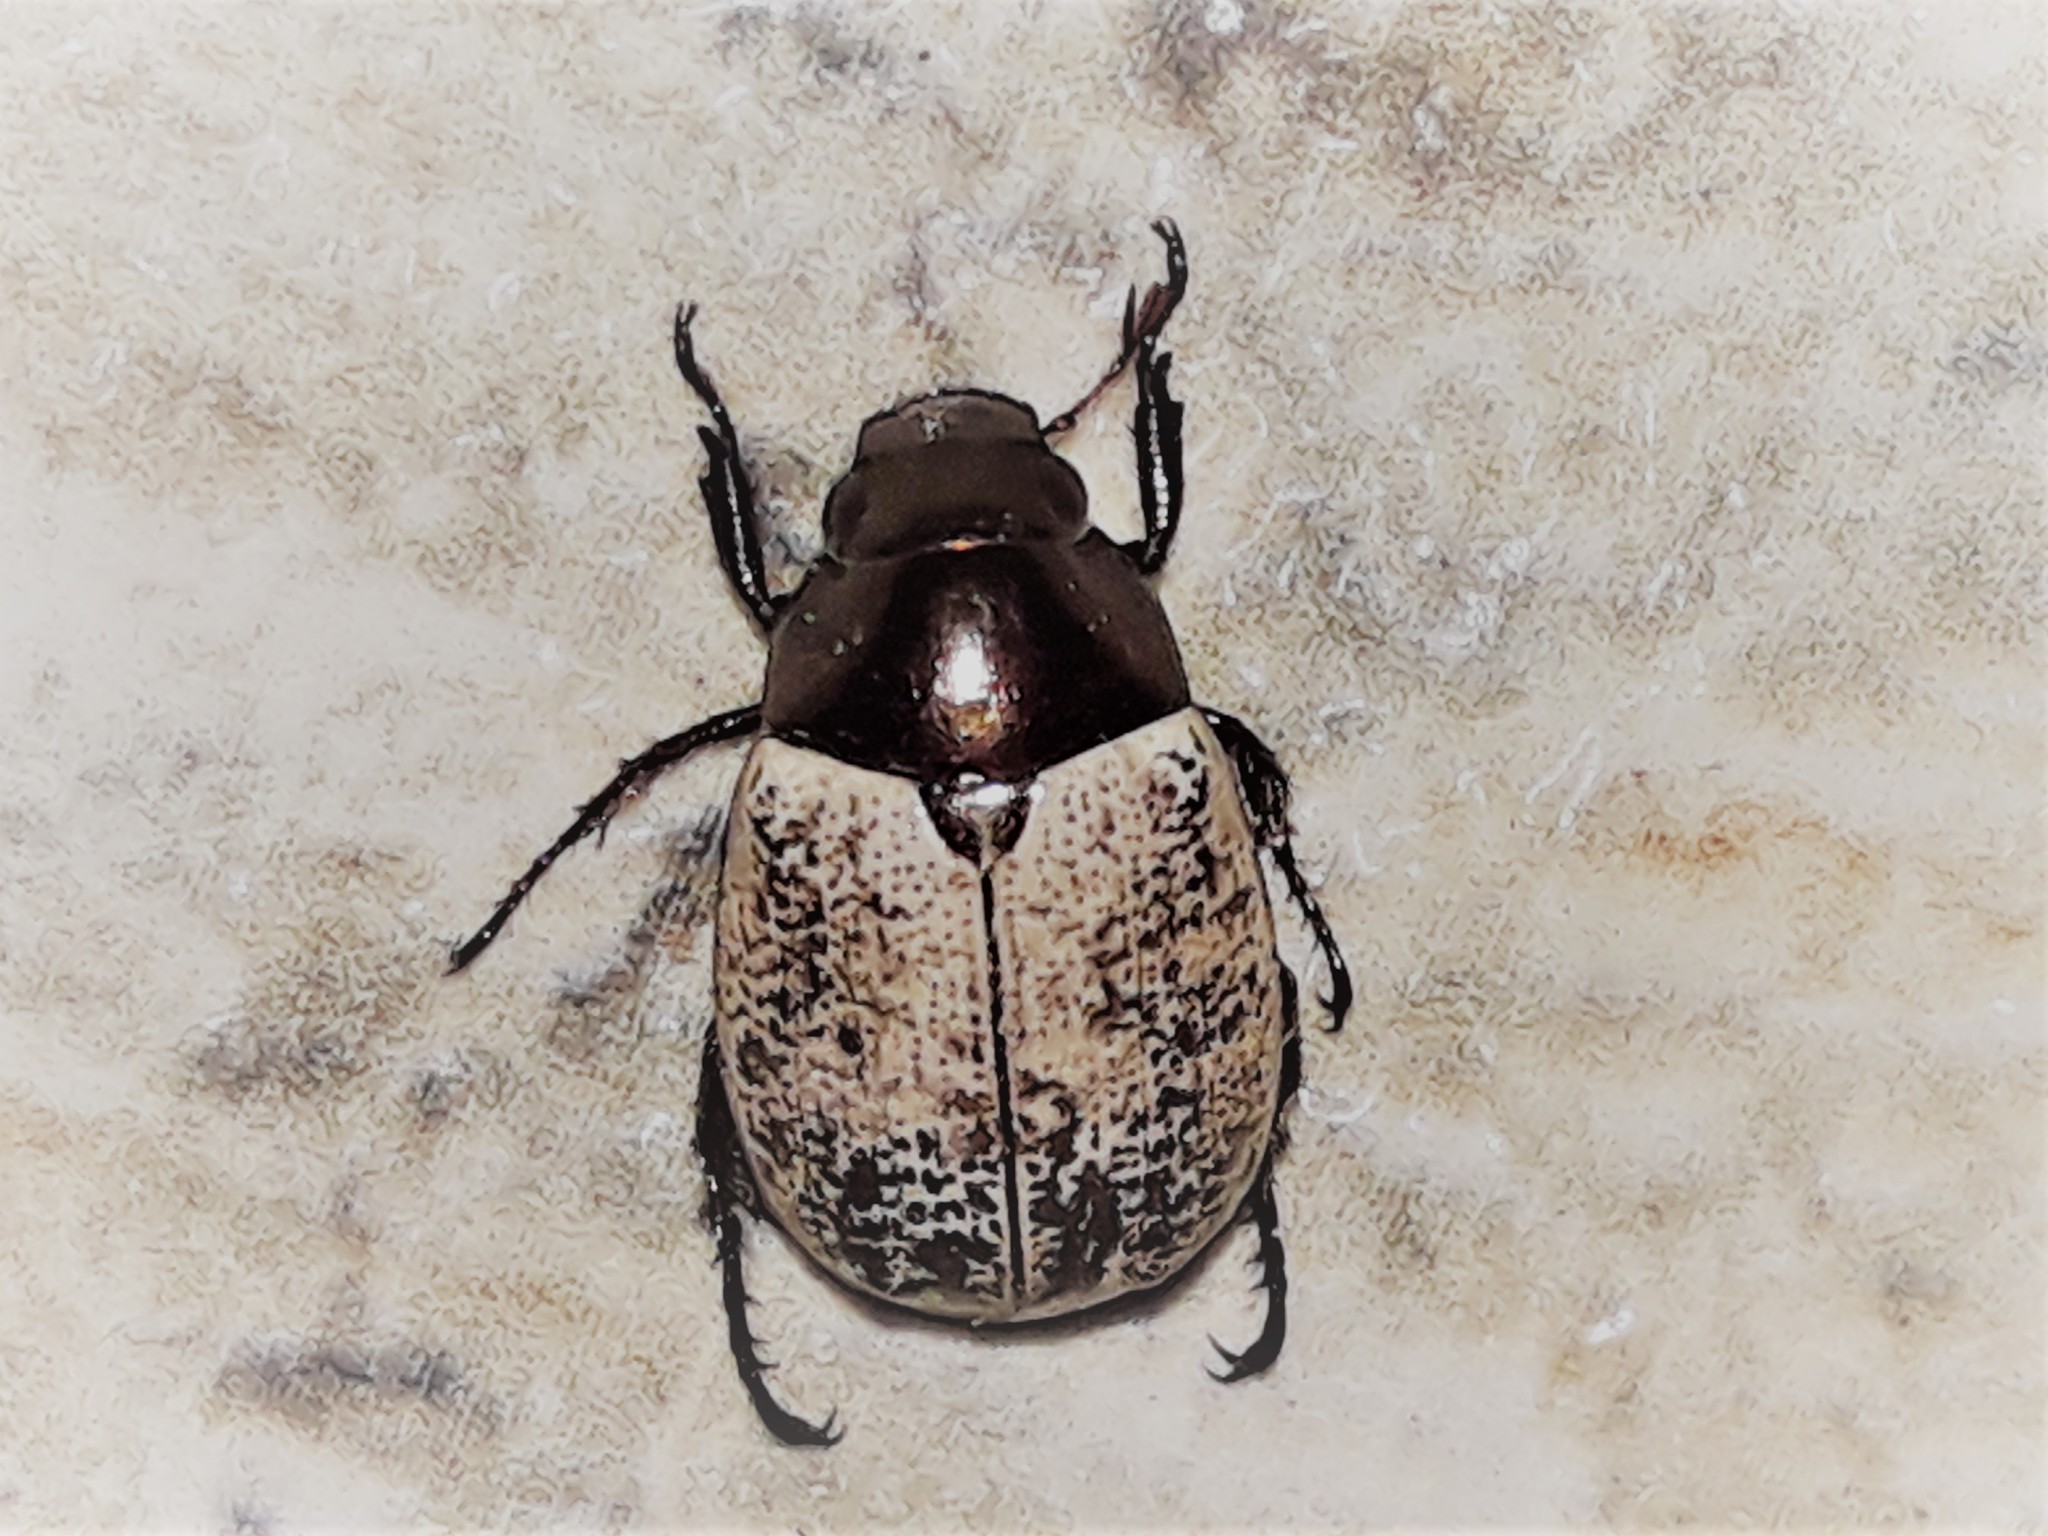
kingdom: Animalia
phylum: Arthropoda
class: Insecta
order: Coleoptera
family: Scarabaeidae
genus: Callistethus
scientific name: Callistethus
